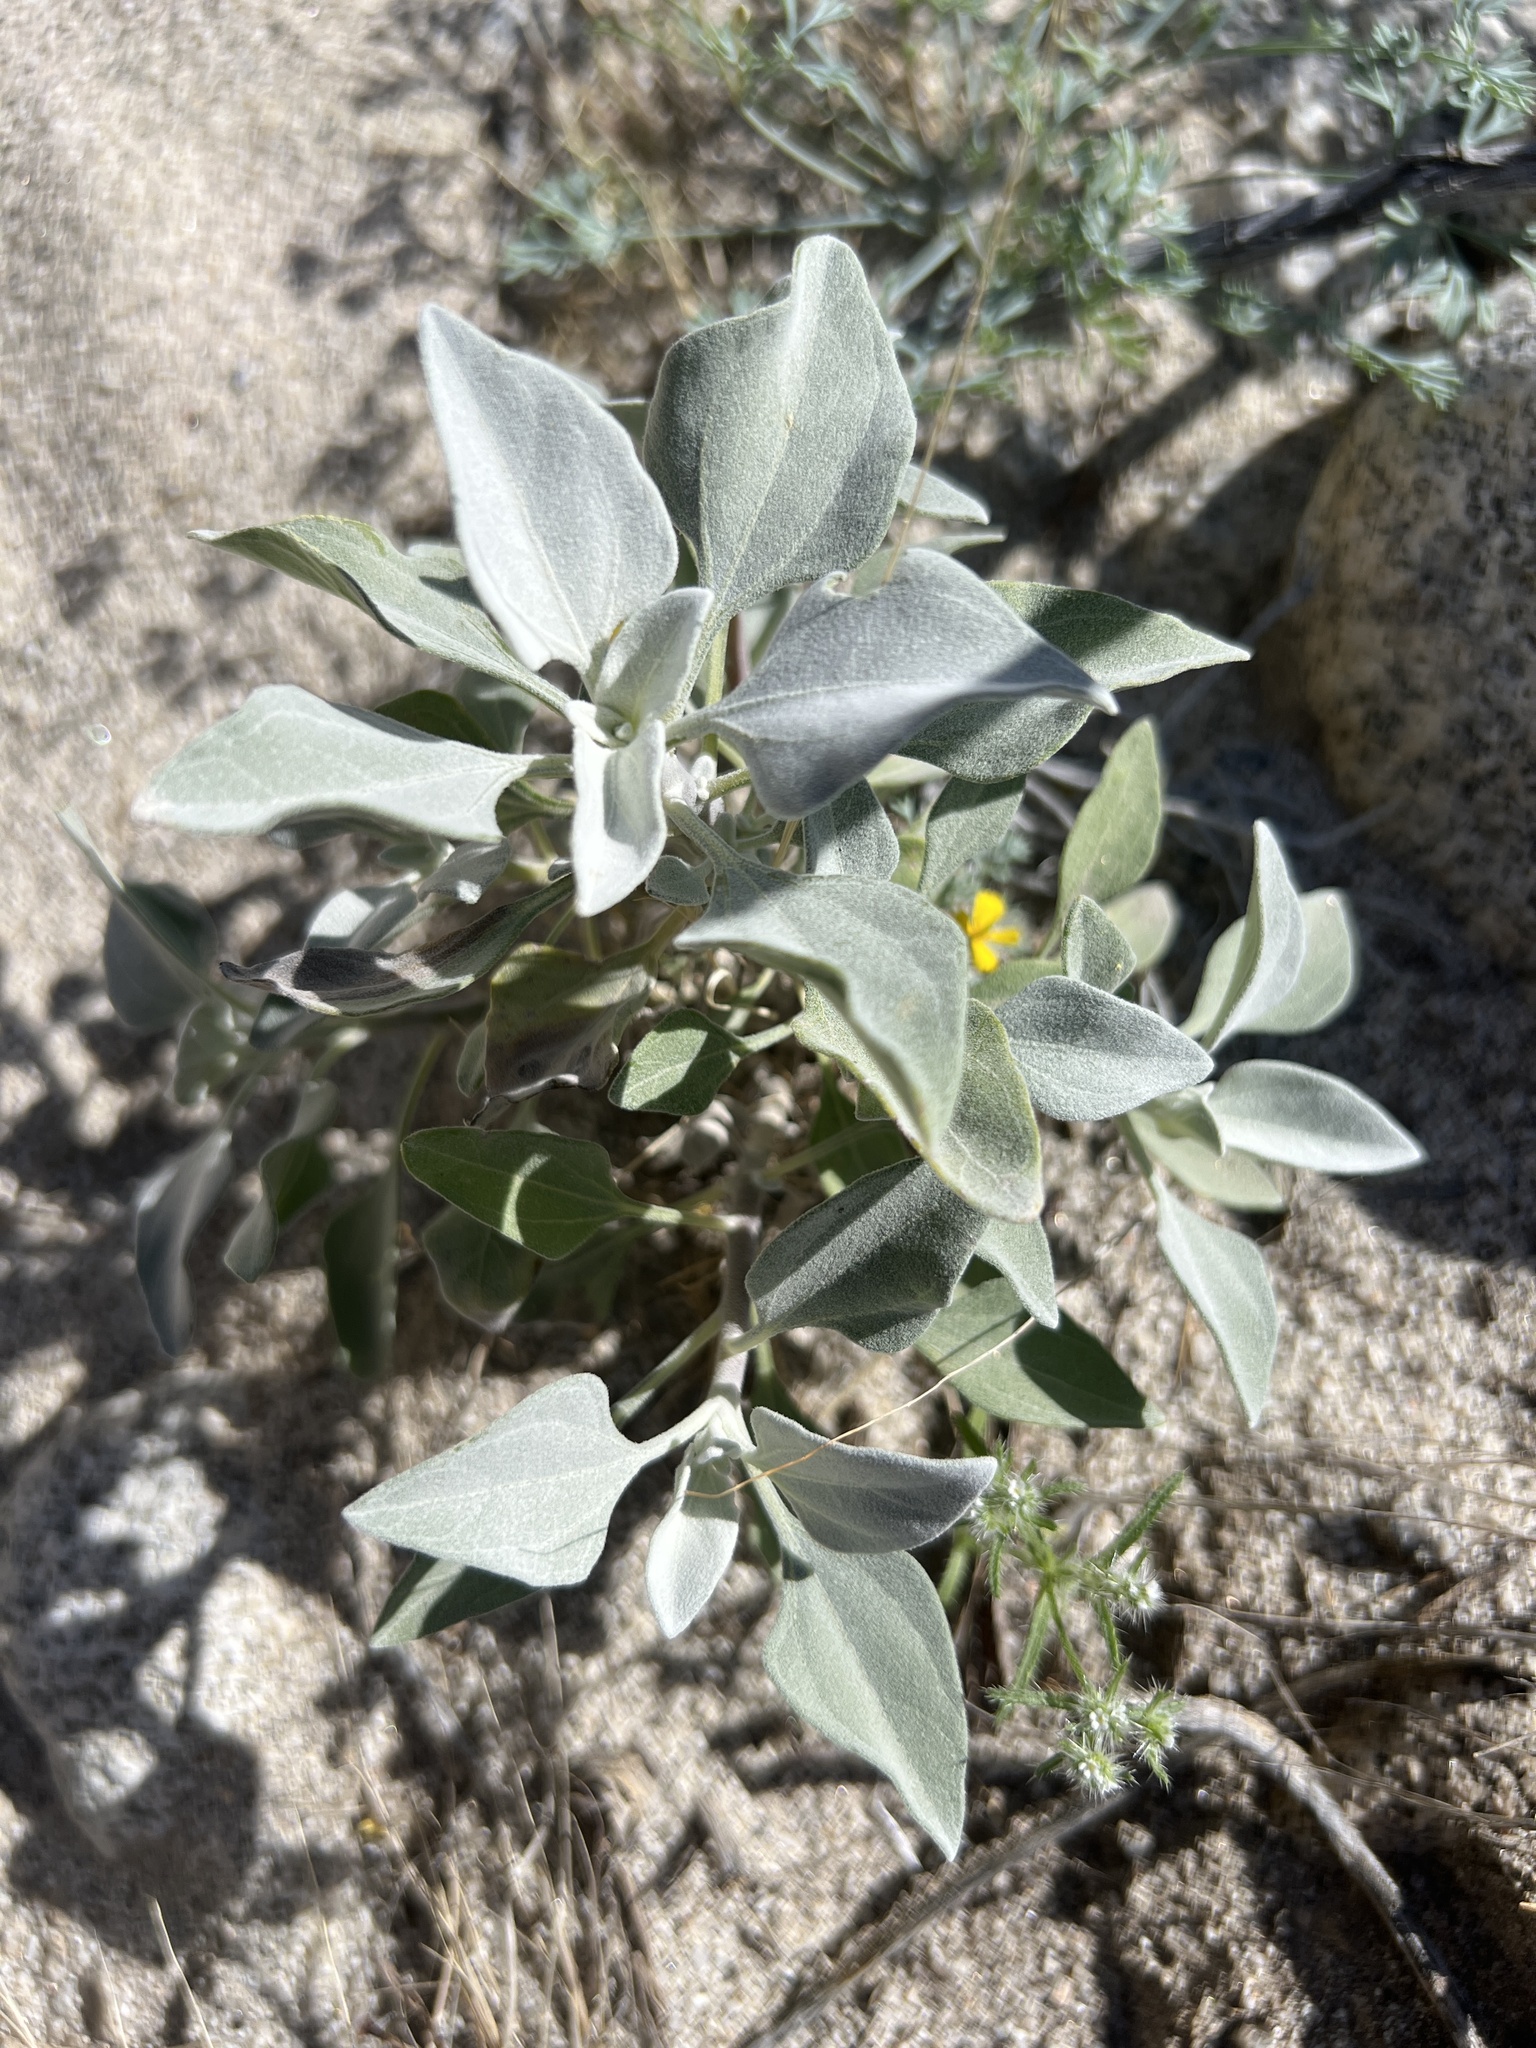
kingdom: Plantae
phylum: Tracheophyta
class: Magnoliopsida
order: Asterales
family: Asteraceae
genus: Encelia
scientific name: Encelia farinosa
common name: Brittlebush
